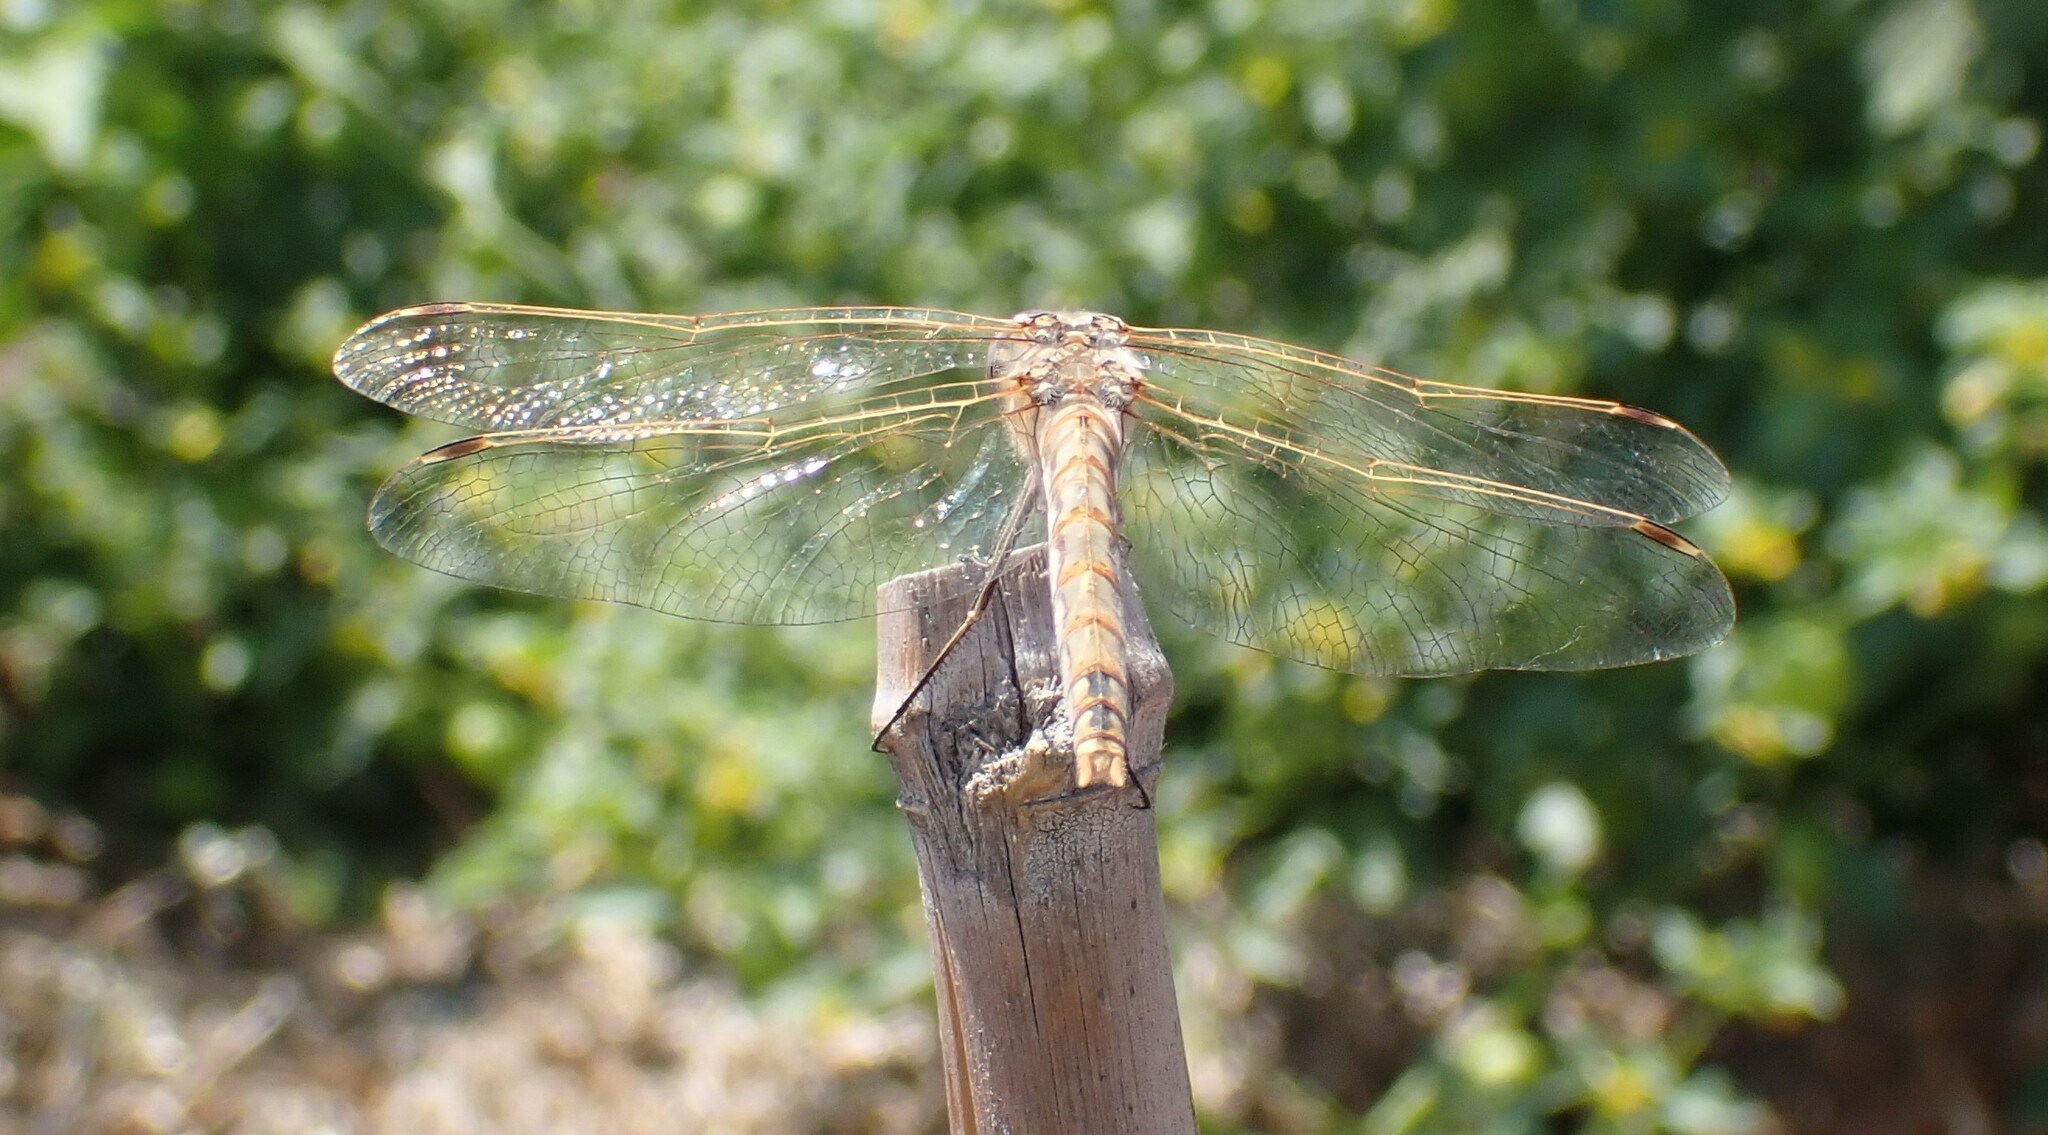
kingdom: Animalia
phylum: Arthropoda
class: Insecta
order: Odonata
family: Libellulidae
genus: Sympetrum
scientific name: Sympetrum corruptum
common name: Variegated meadowhawk
